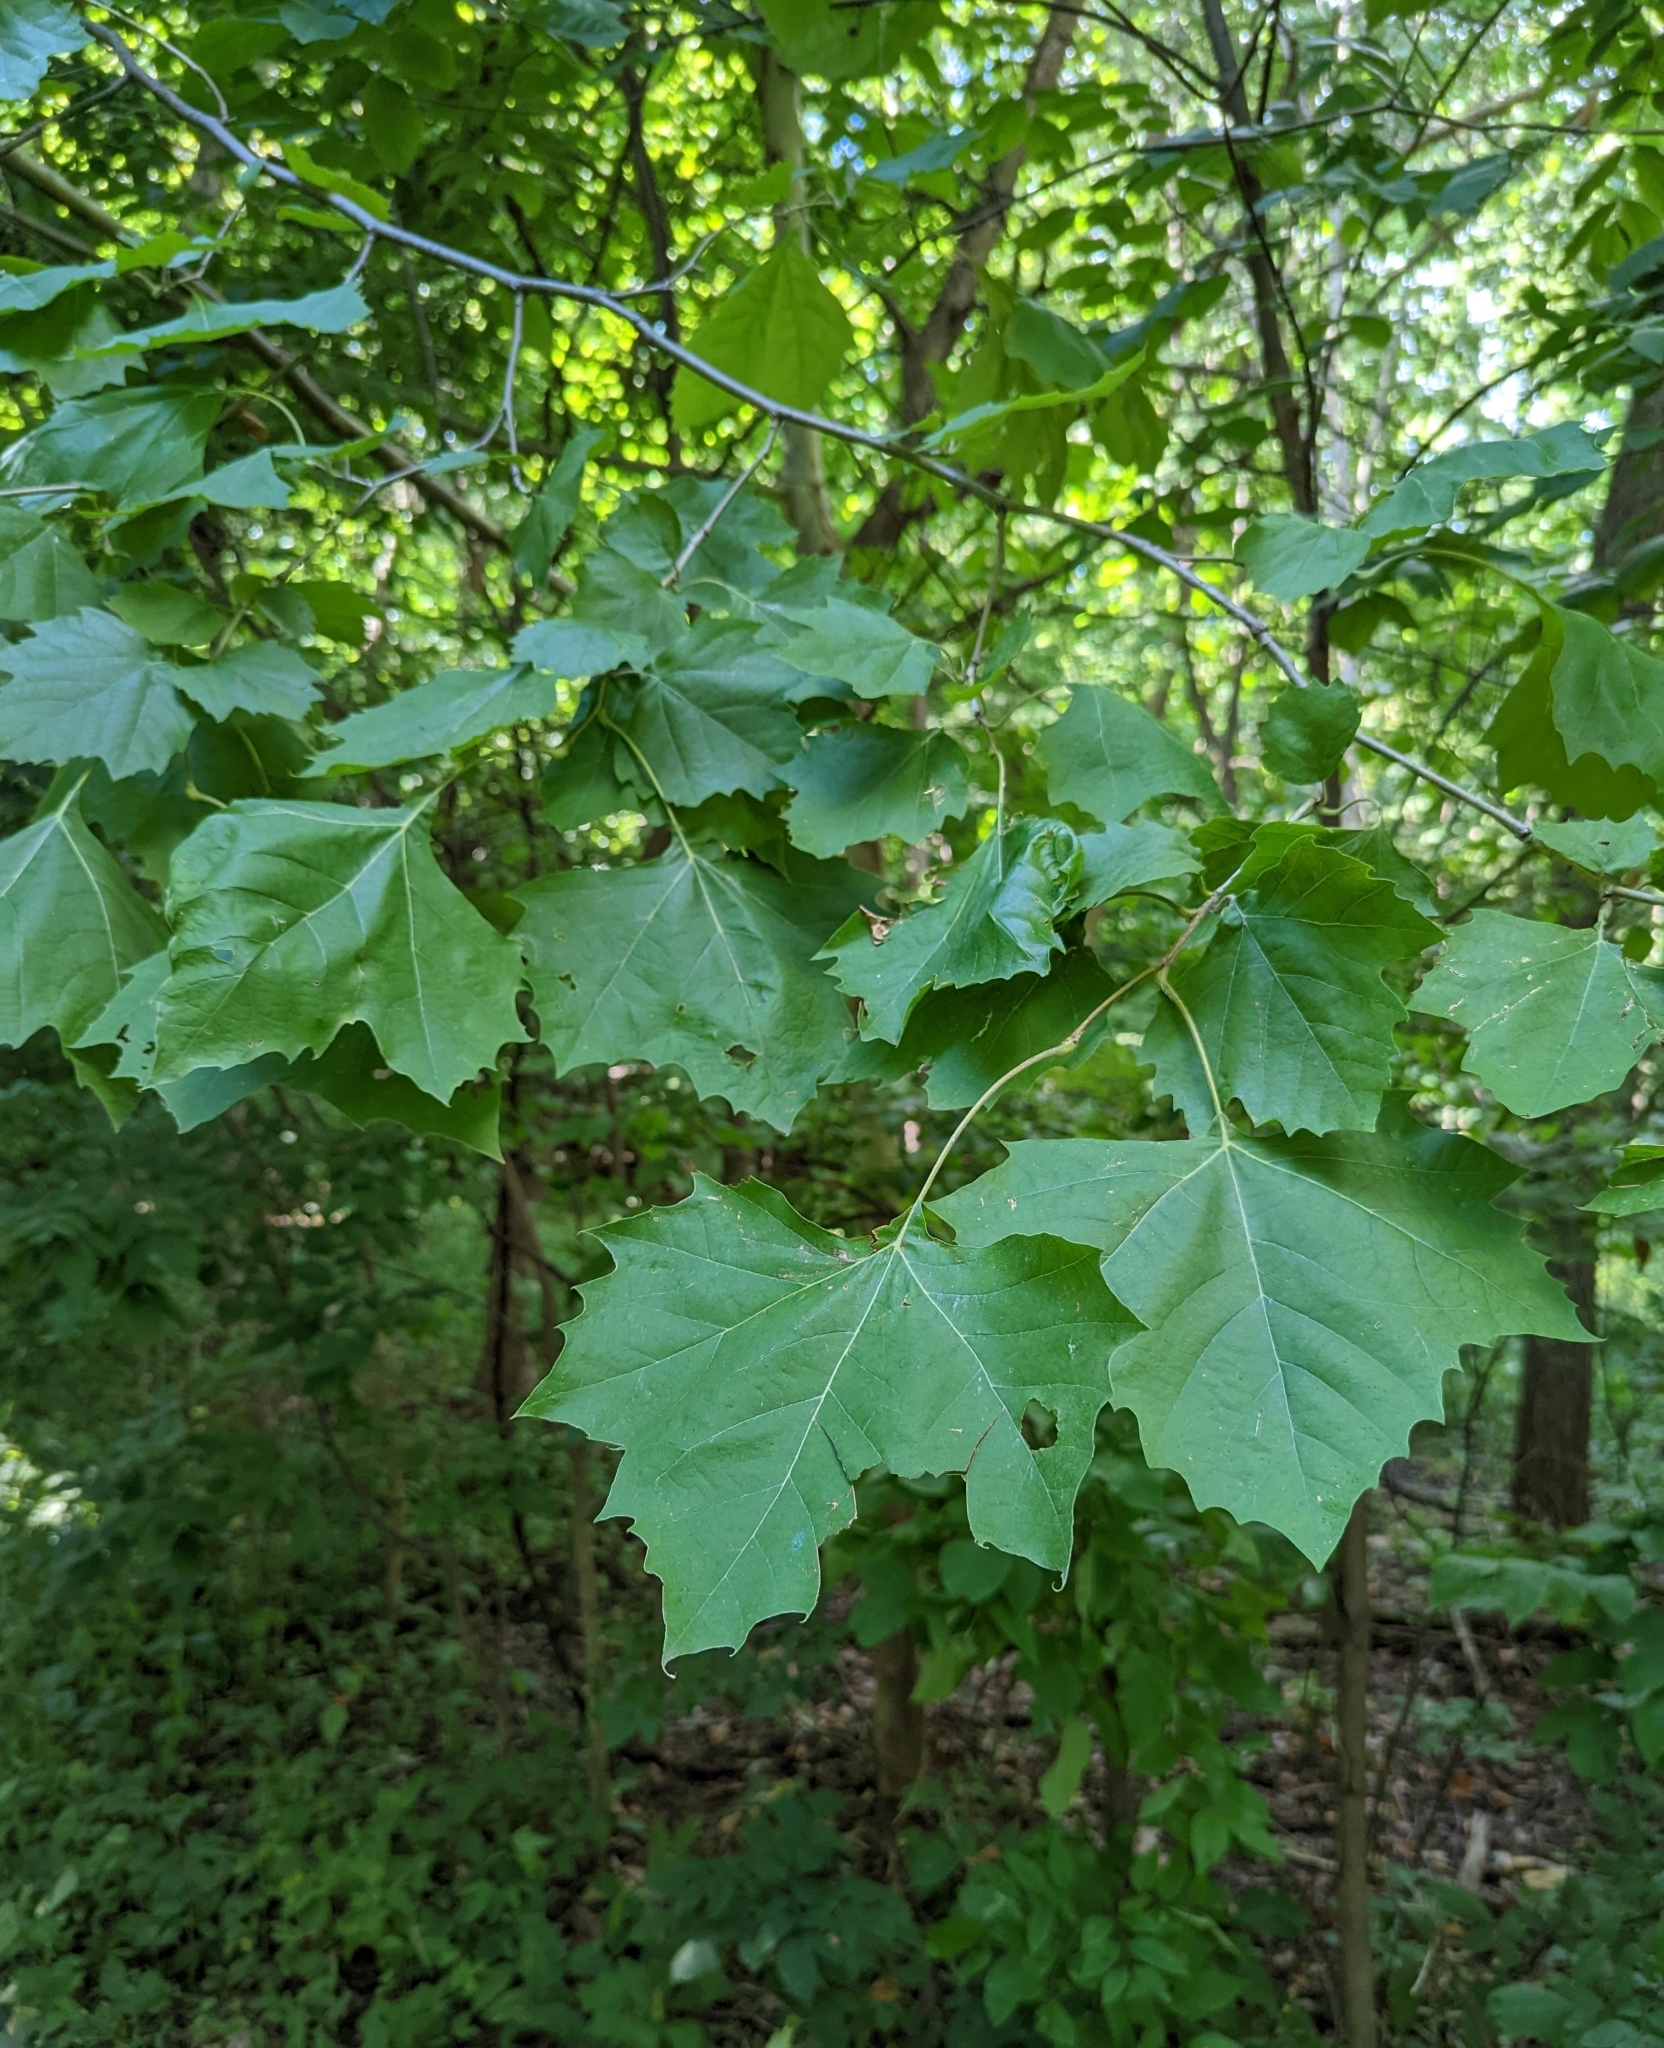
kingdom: Plantae
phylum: Tracheophyta
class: Magnoliopsida
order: Proteales
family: Platanaceae
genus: Platanus
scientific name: Platanus occidentalis
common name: American sycamore
